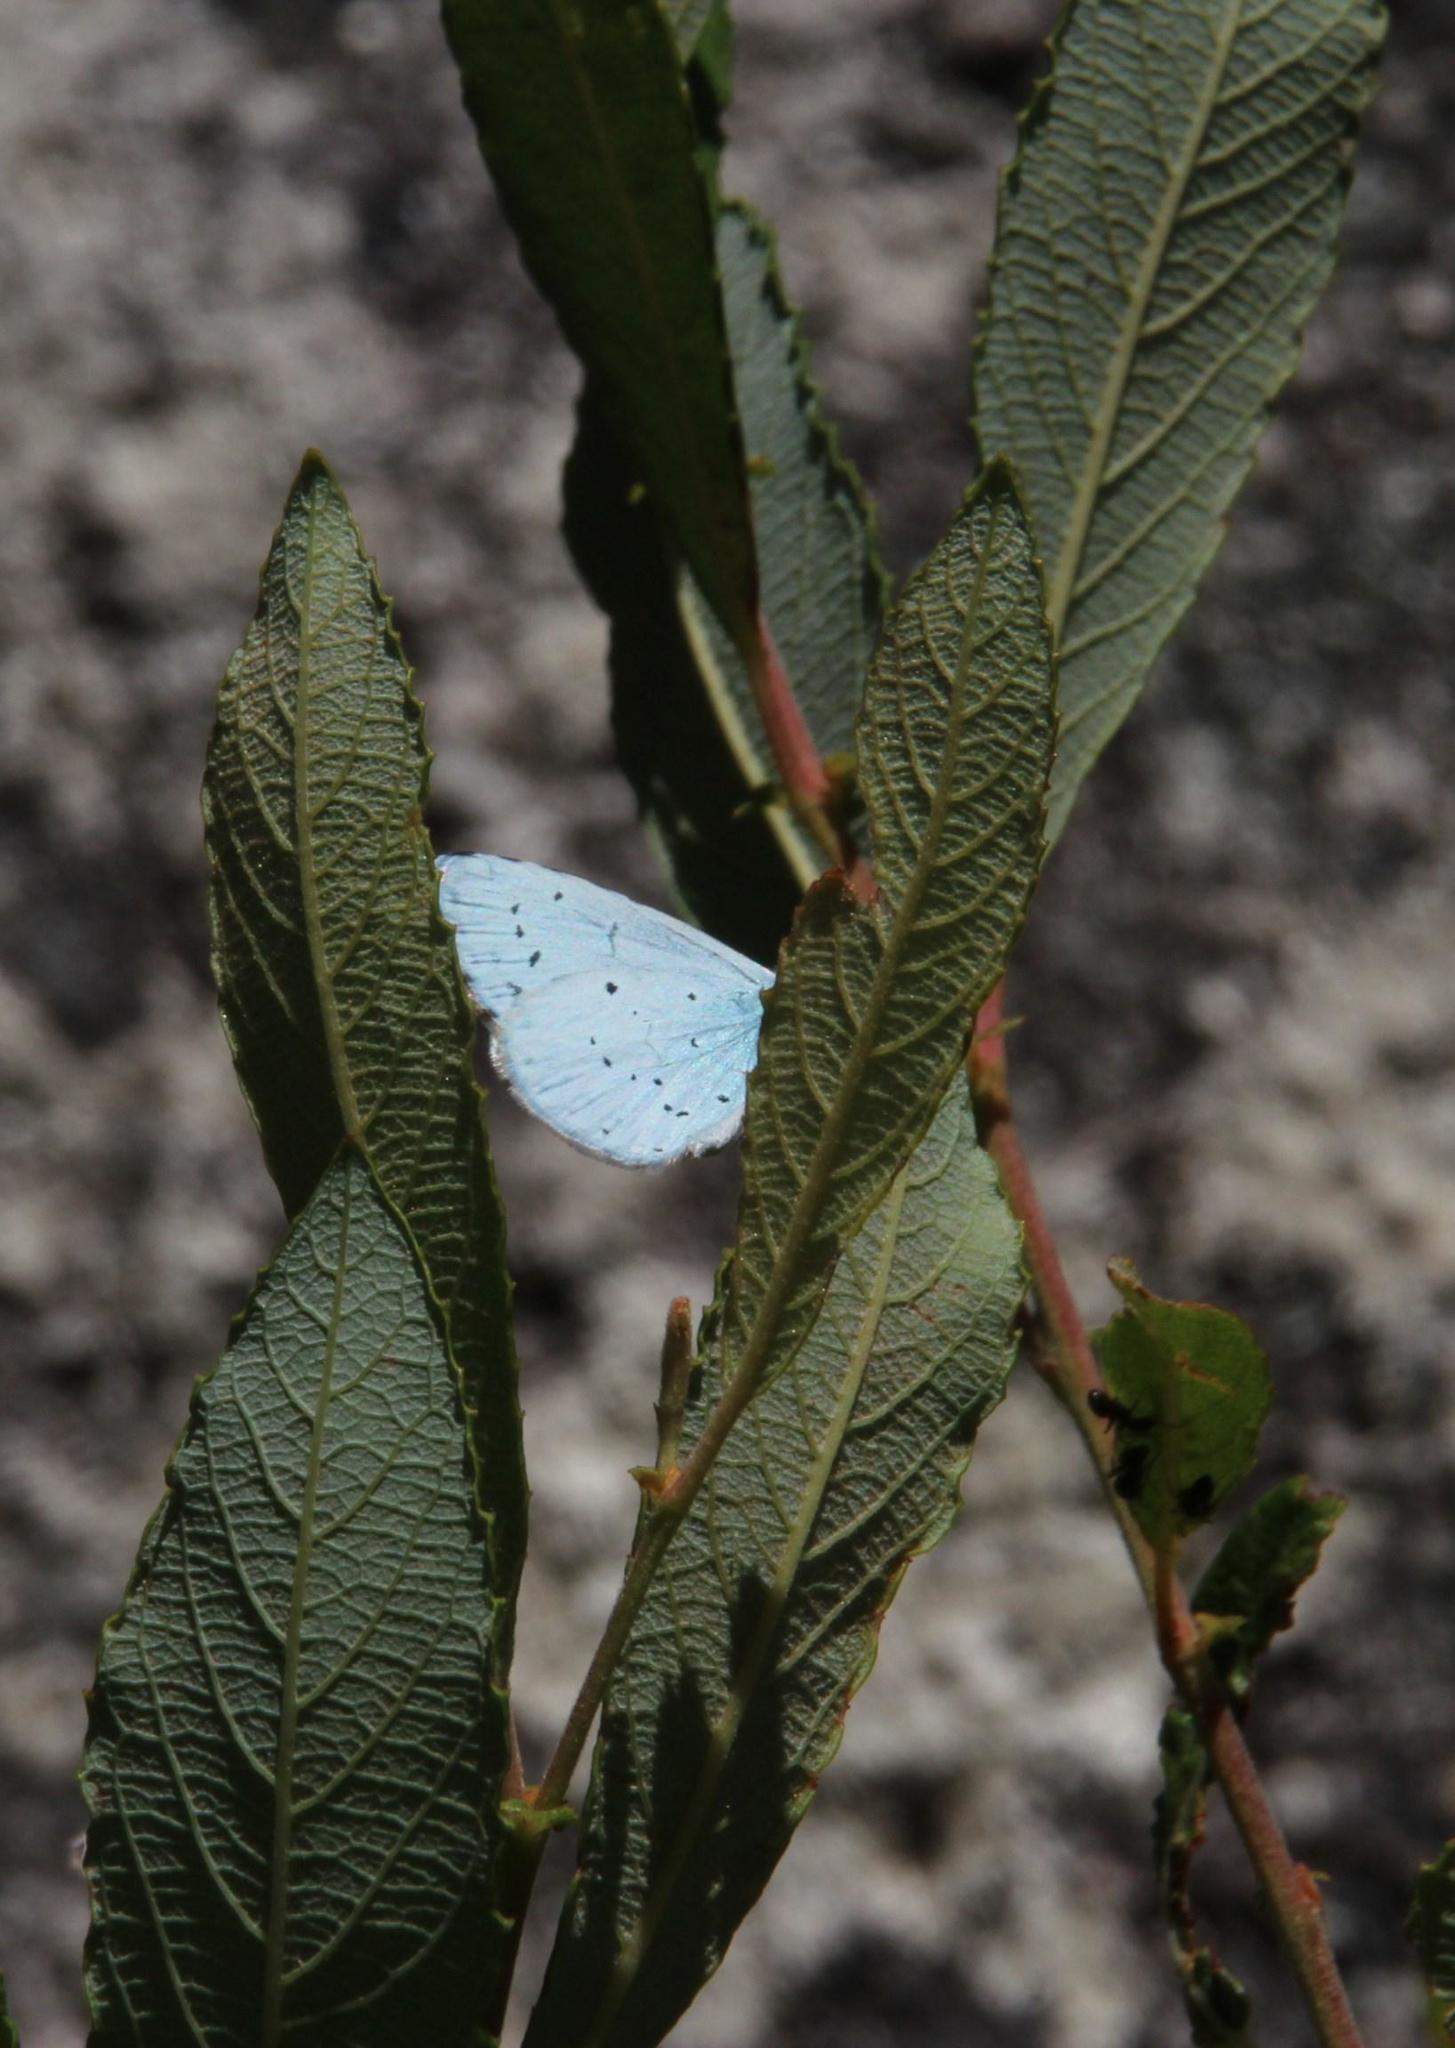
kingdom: Animalia
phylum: Arthropoda
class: Insecta
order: Lepidoptera
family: Lycaenidae
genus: Celastrina
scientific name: Celastrina argiolus
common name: Holly blue
